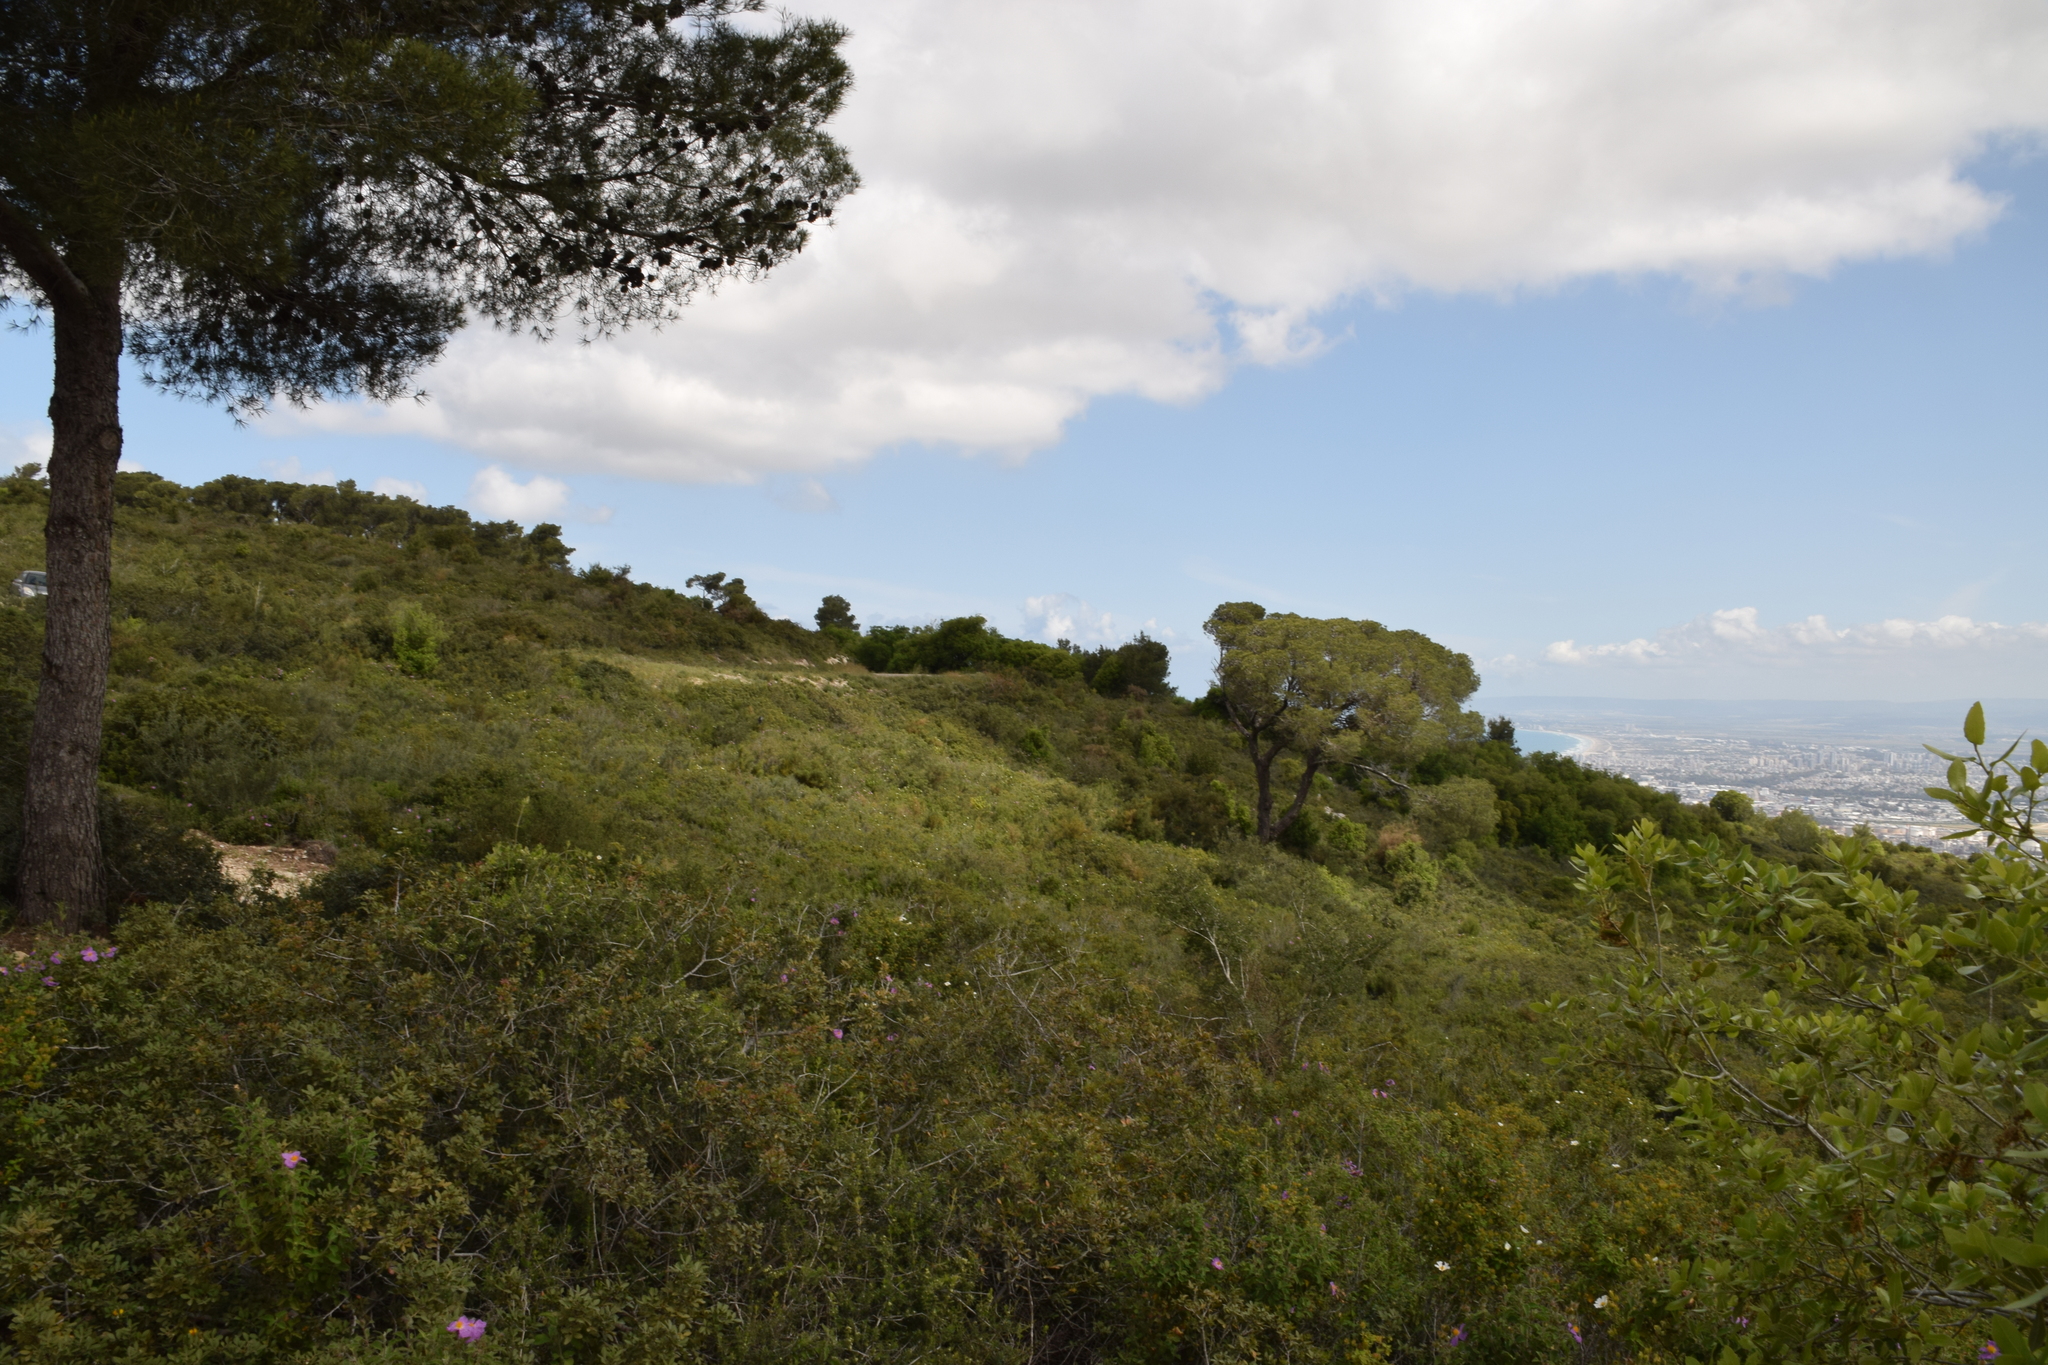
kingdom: Plantae
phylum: Tracheophyta
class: Magnoliopsida
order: Malvales
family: Cytinaceae
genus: Cytinus
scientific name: Cytinus ruber
